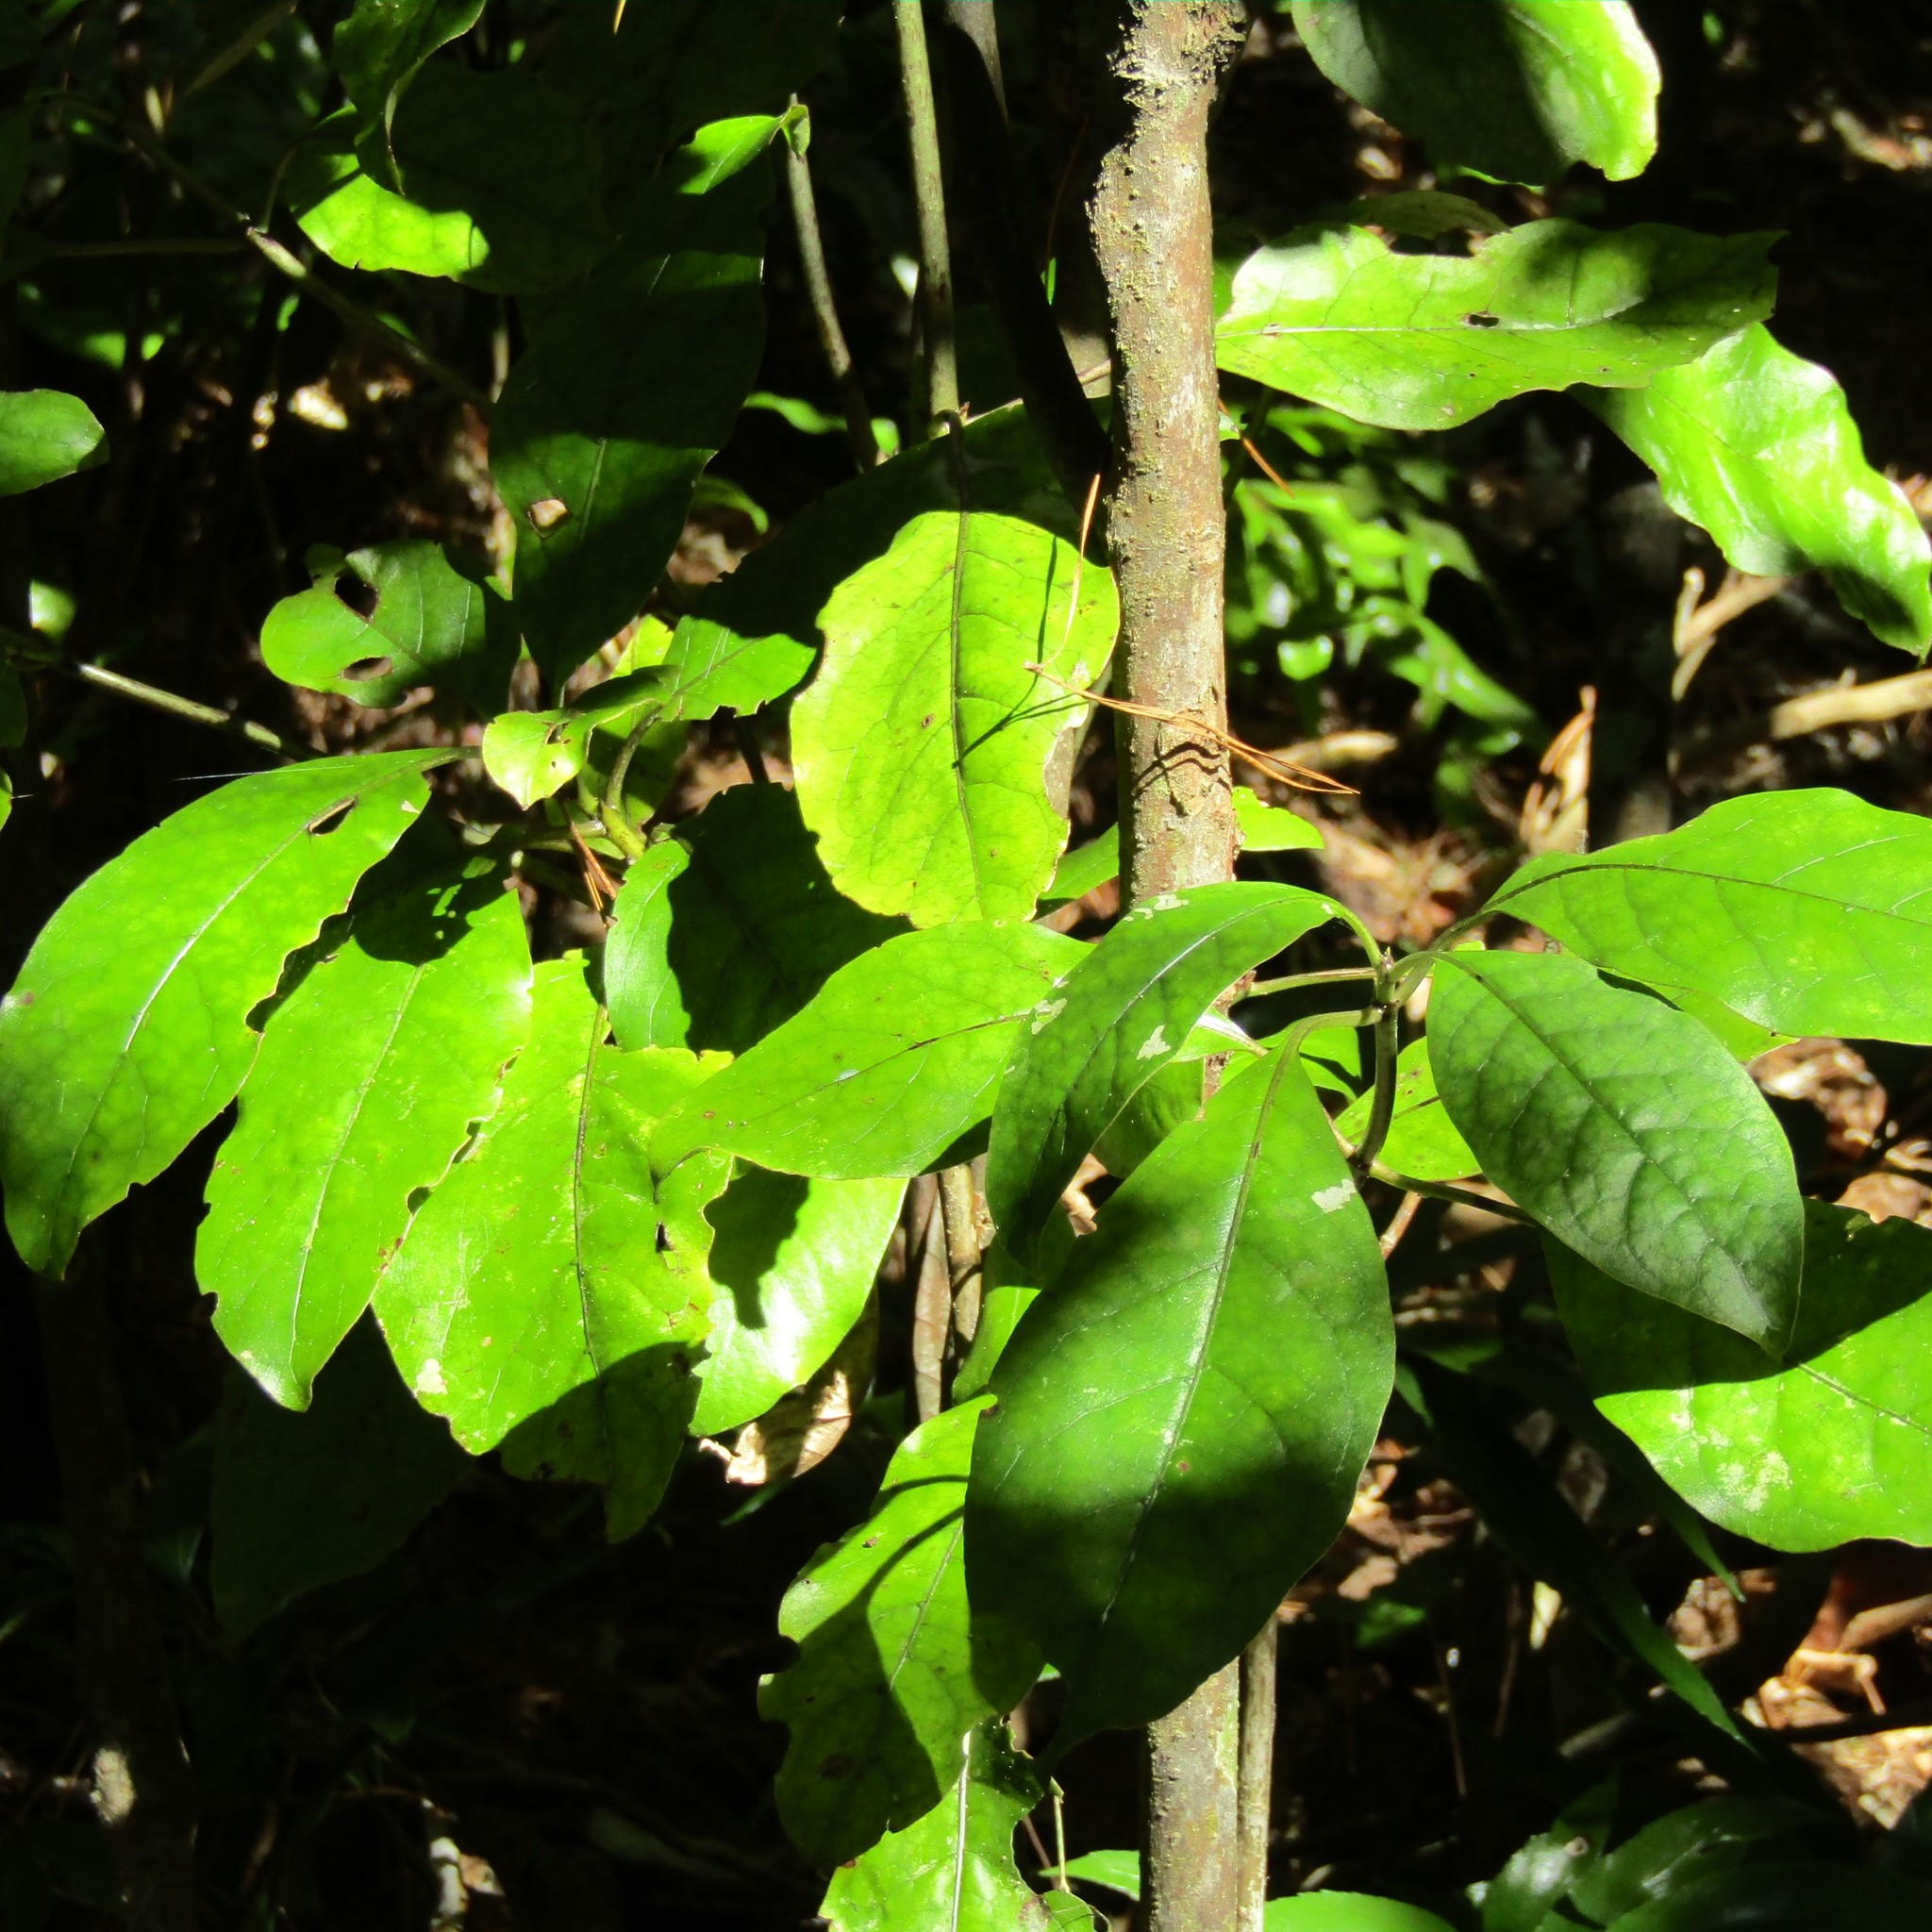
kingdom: Plantae
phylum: Tracheophyta
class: Magnoliopsida
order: Gentianales
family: Rubiaceae
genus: Coprosma
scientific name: Coprosma autumnalis
